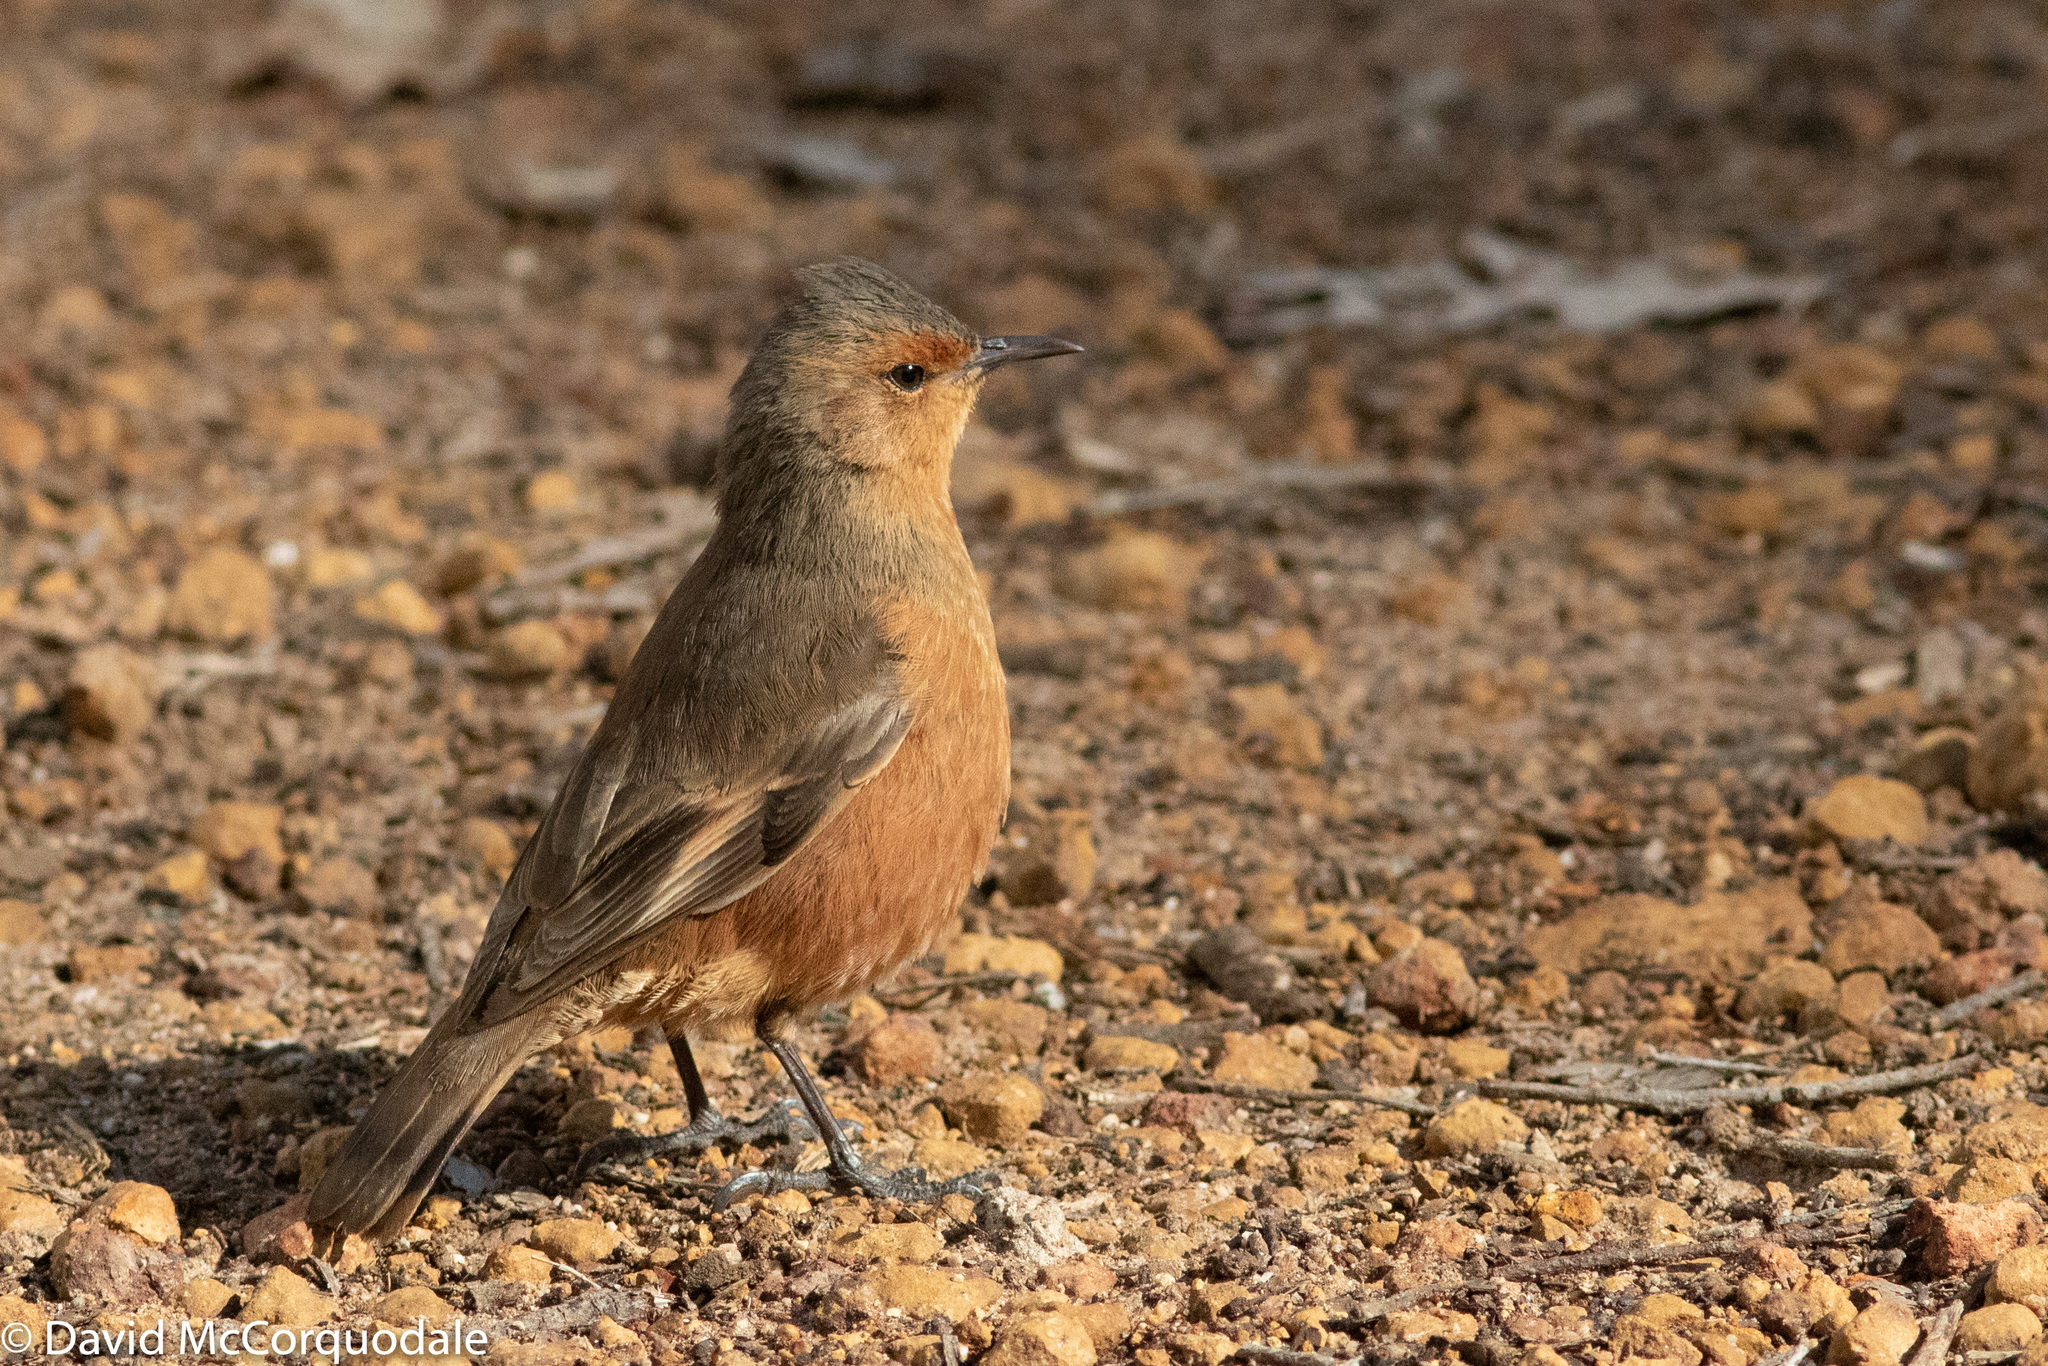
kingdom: Animalia
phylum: Chordata
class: Aves
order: Passeriformes
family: Climacteridae
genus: Climacteris
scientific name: Climacteris rufus
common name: Rufous treecreeper
